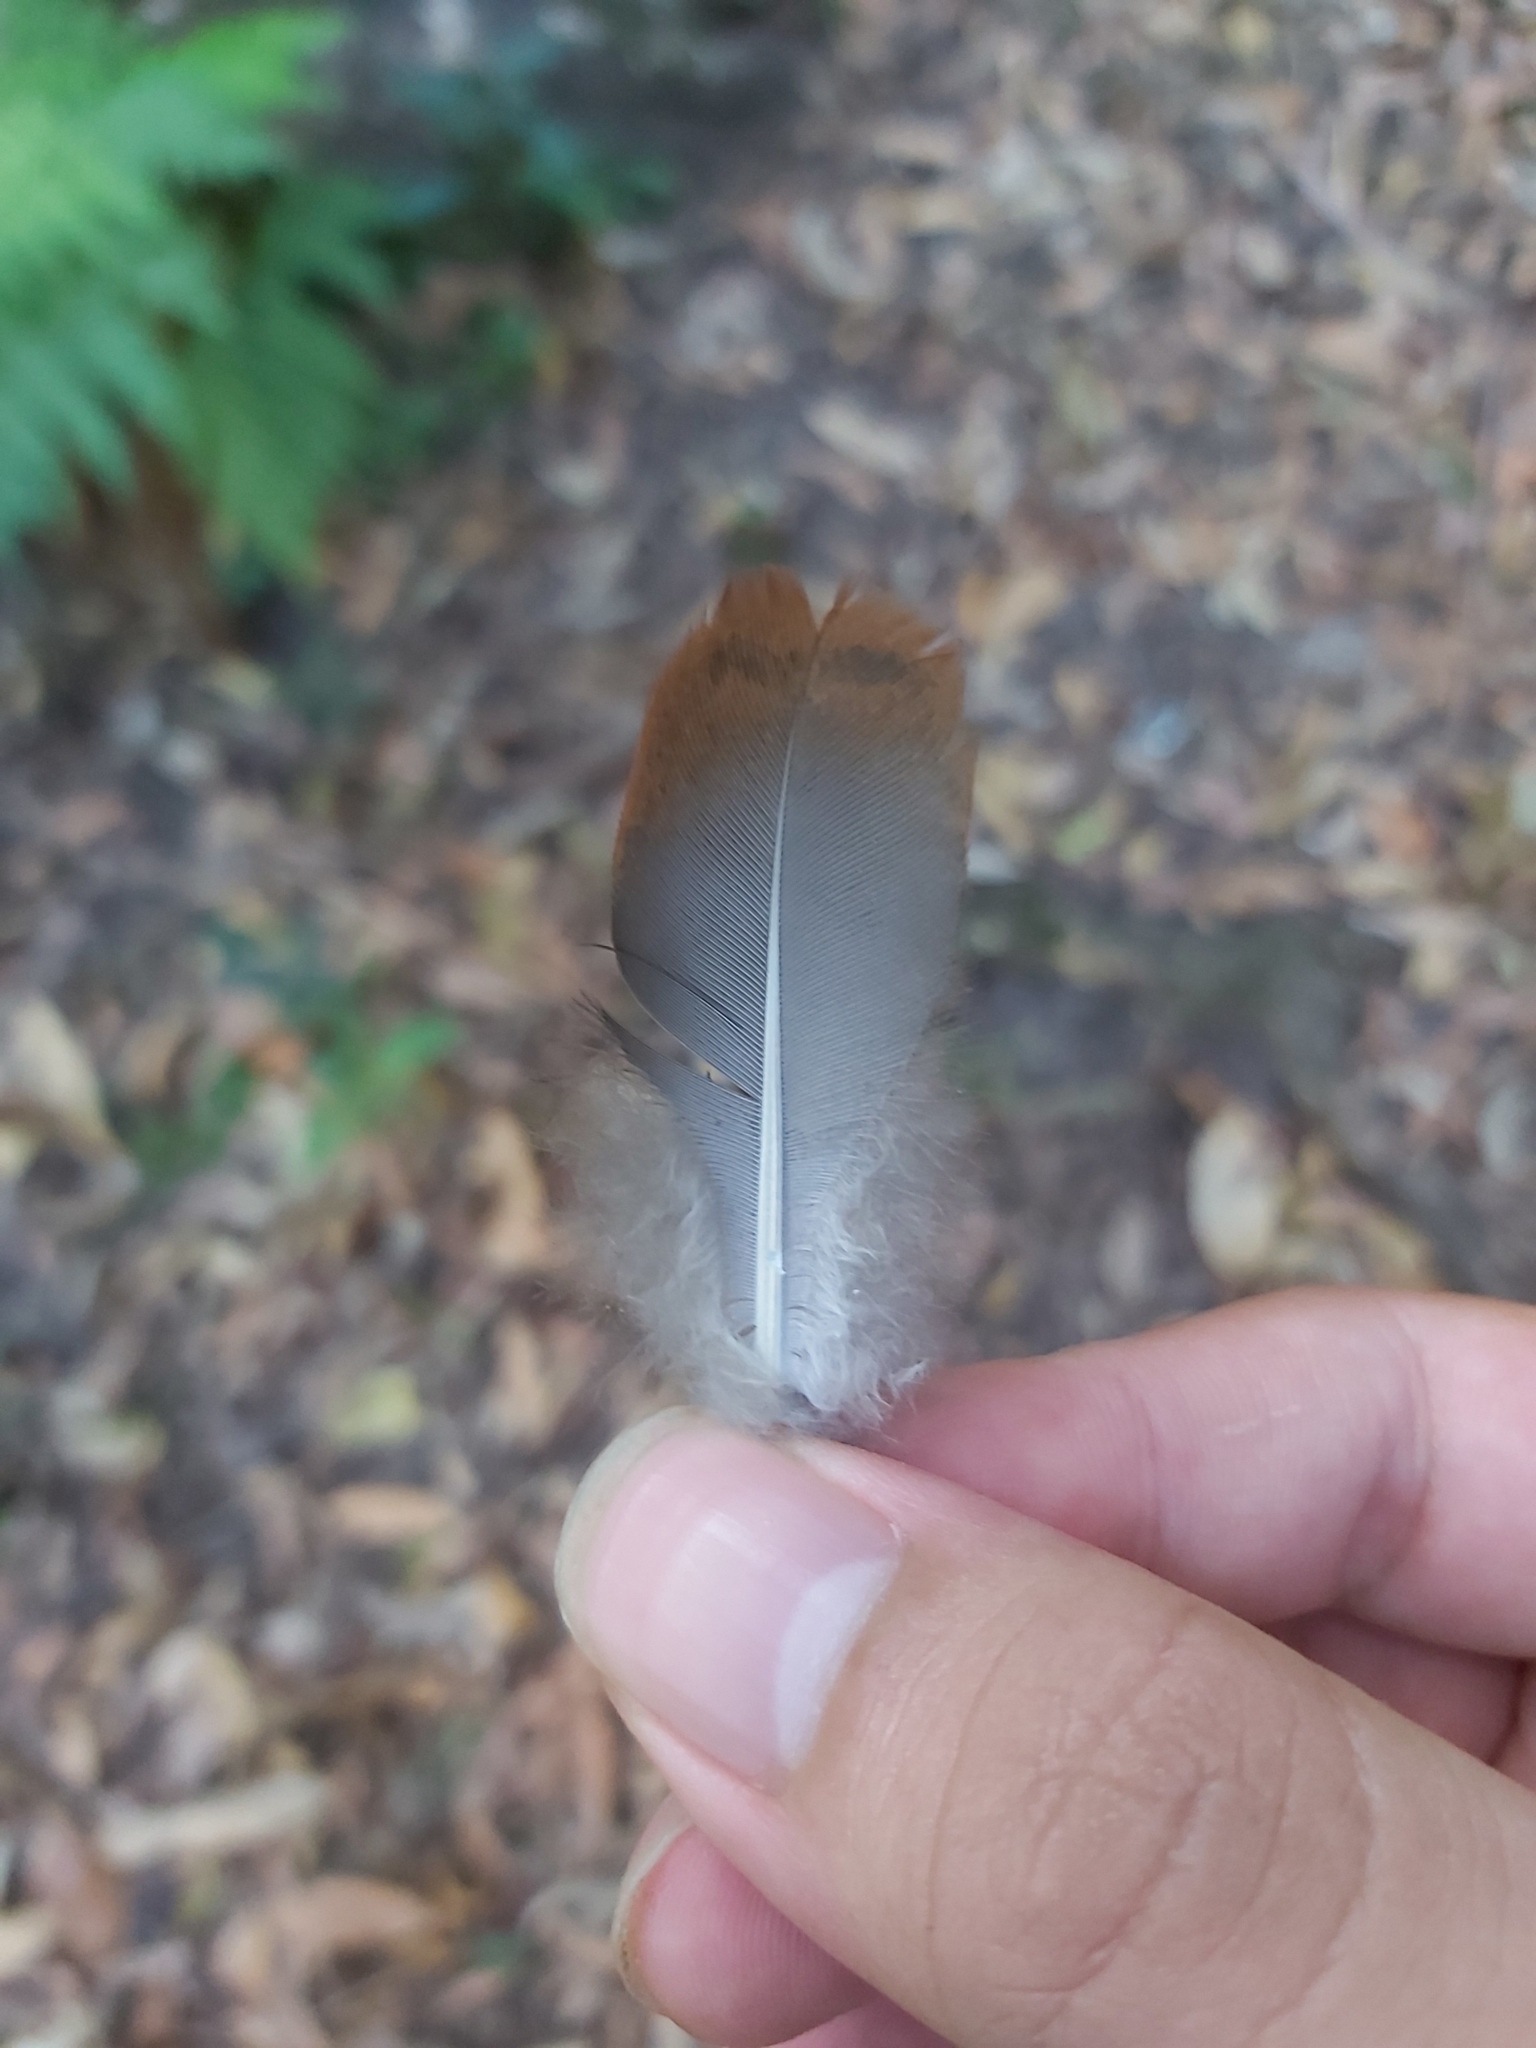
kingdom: Animalia
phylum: Chordata
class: Aves
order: Columbiformes
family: Columbidae
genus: Macropygia
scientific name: Macropygia phasianella
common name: Brown cuckoo-dove
